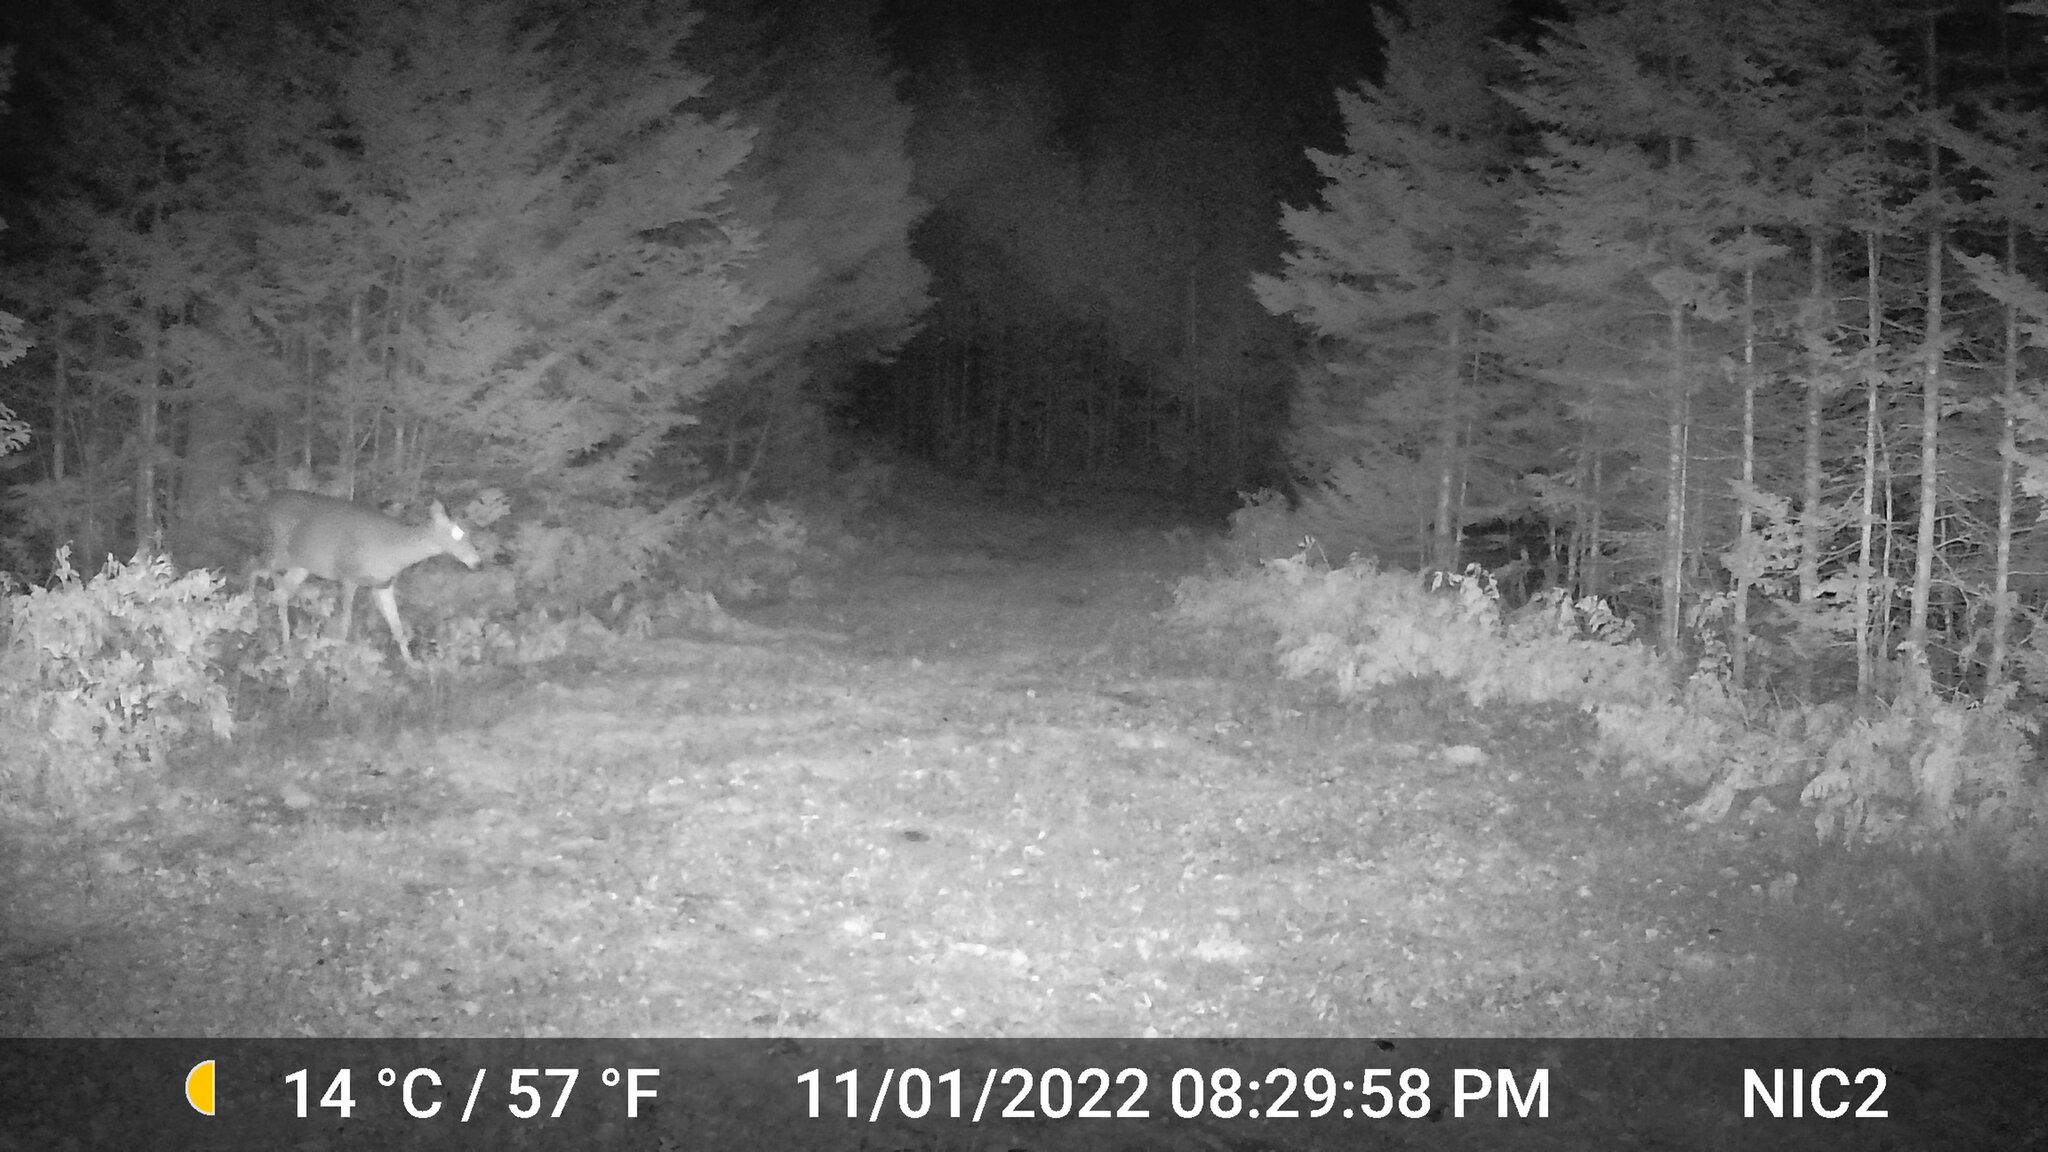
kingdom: Animalia
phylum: Chordata
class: Mammalia
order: Artiodactyla
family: Cervidae
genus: Odocoileus
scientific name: Odocoileus virginianus
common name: White-tailed deer
